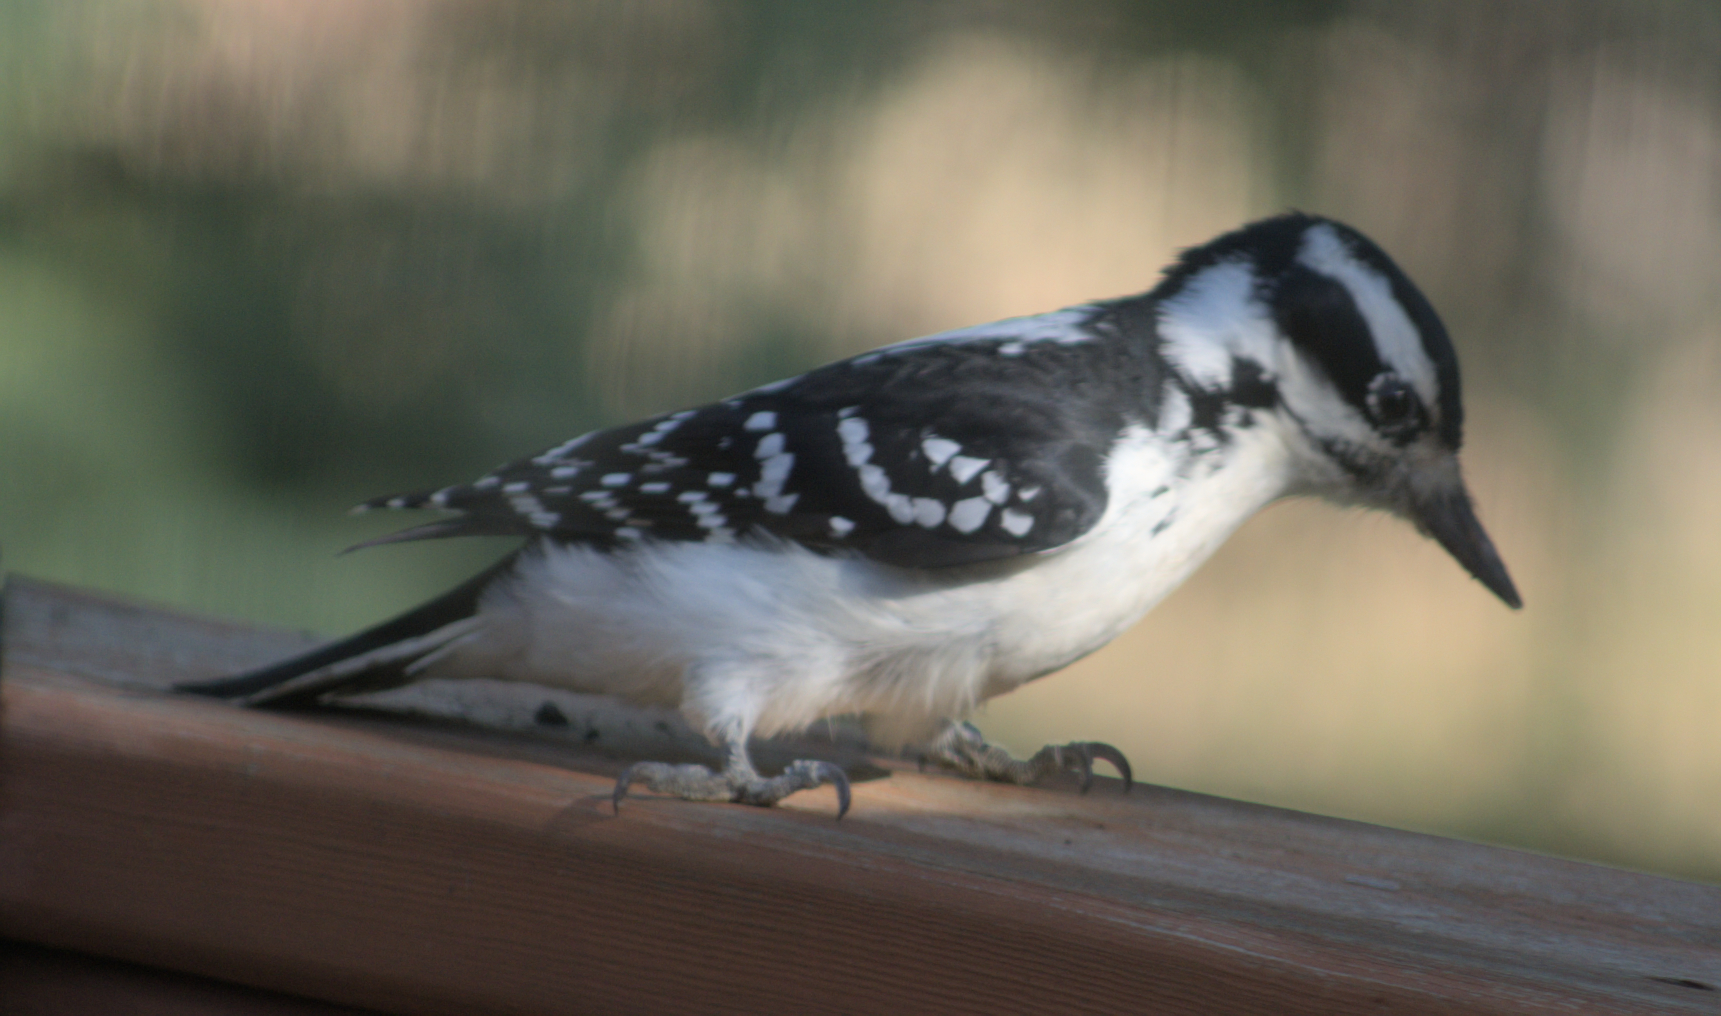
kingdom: Animalia
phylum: Chordata
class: Aves
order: Piciformes
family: Picidae
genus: Leuconotopicus
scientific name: Leuconotopicus villosus
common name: Hairy woodpecker
